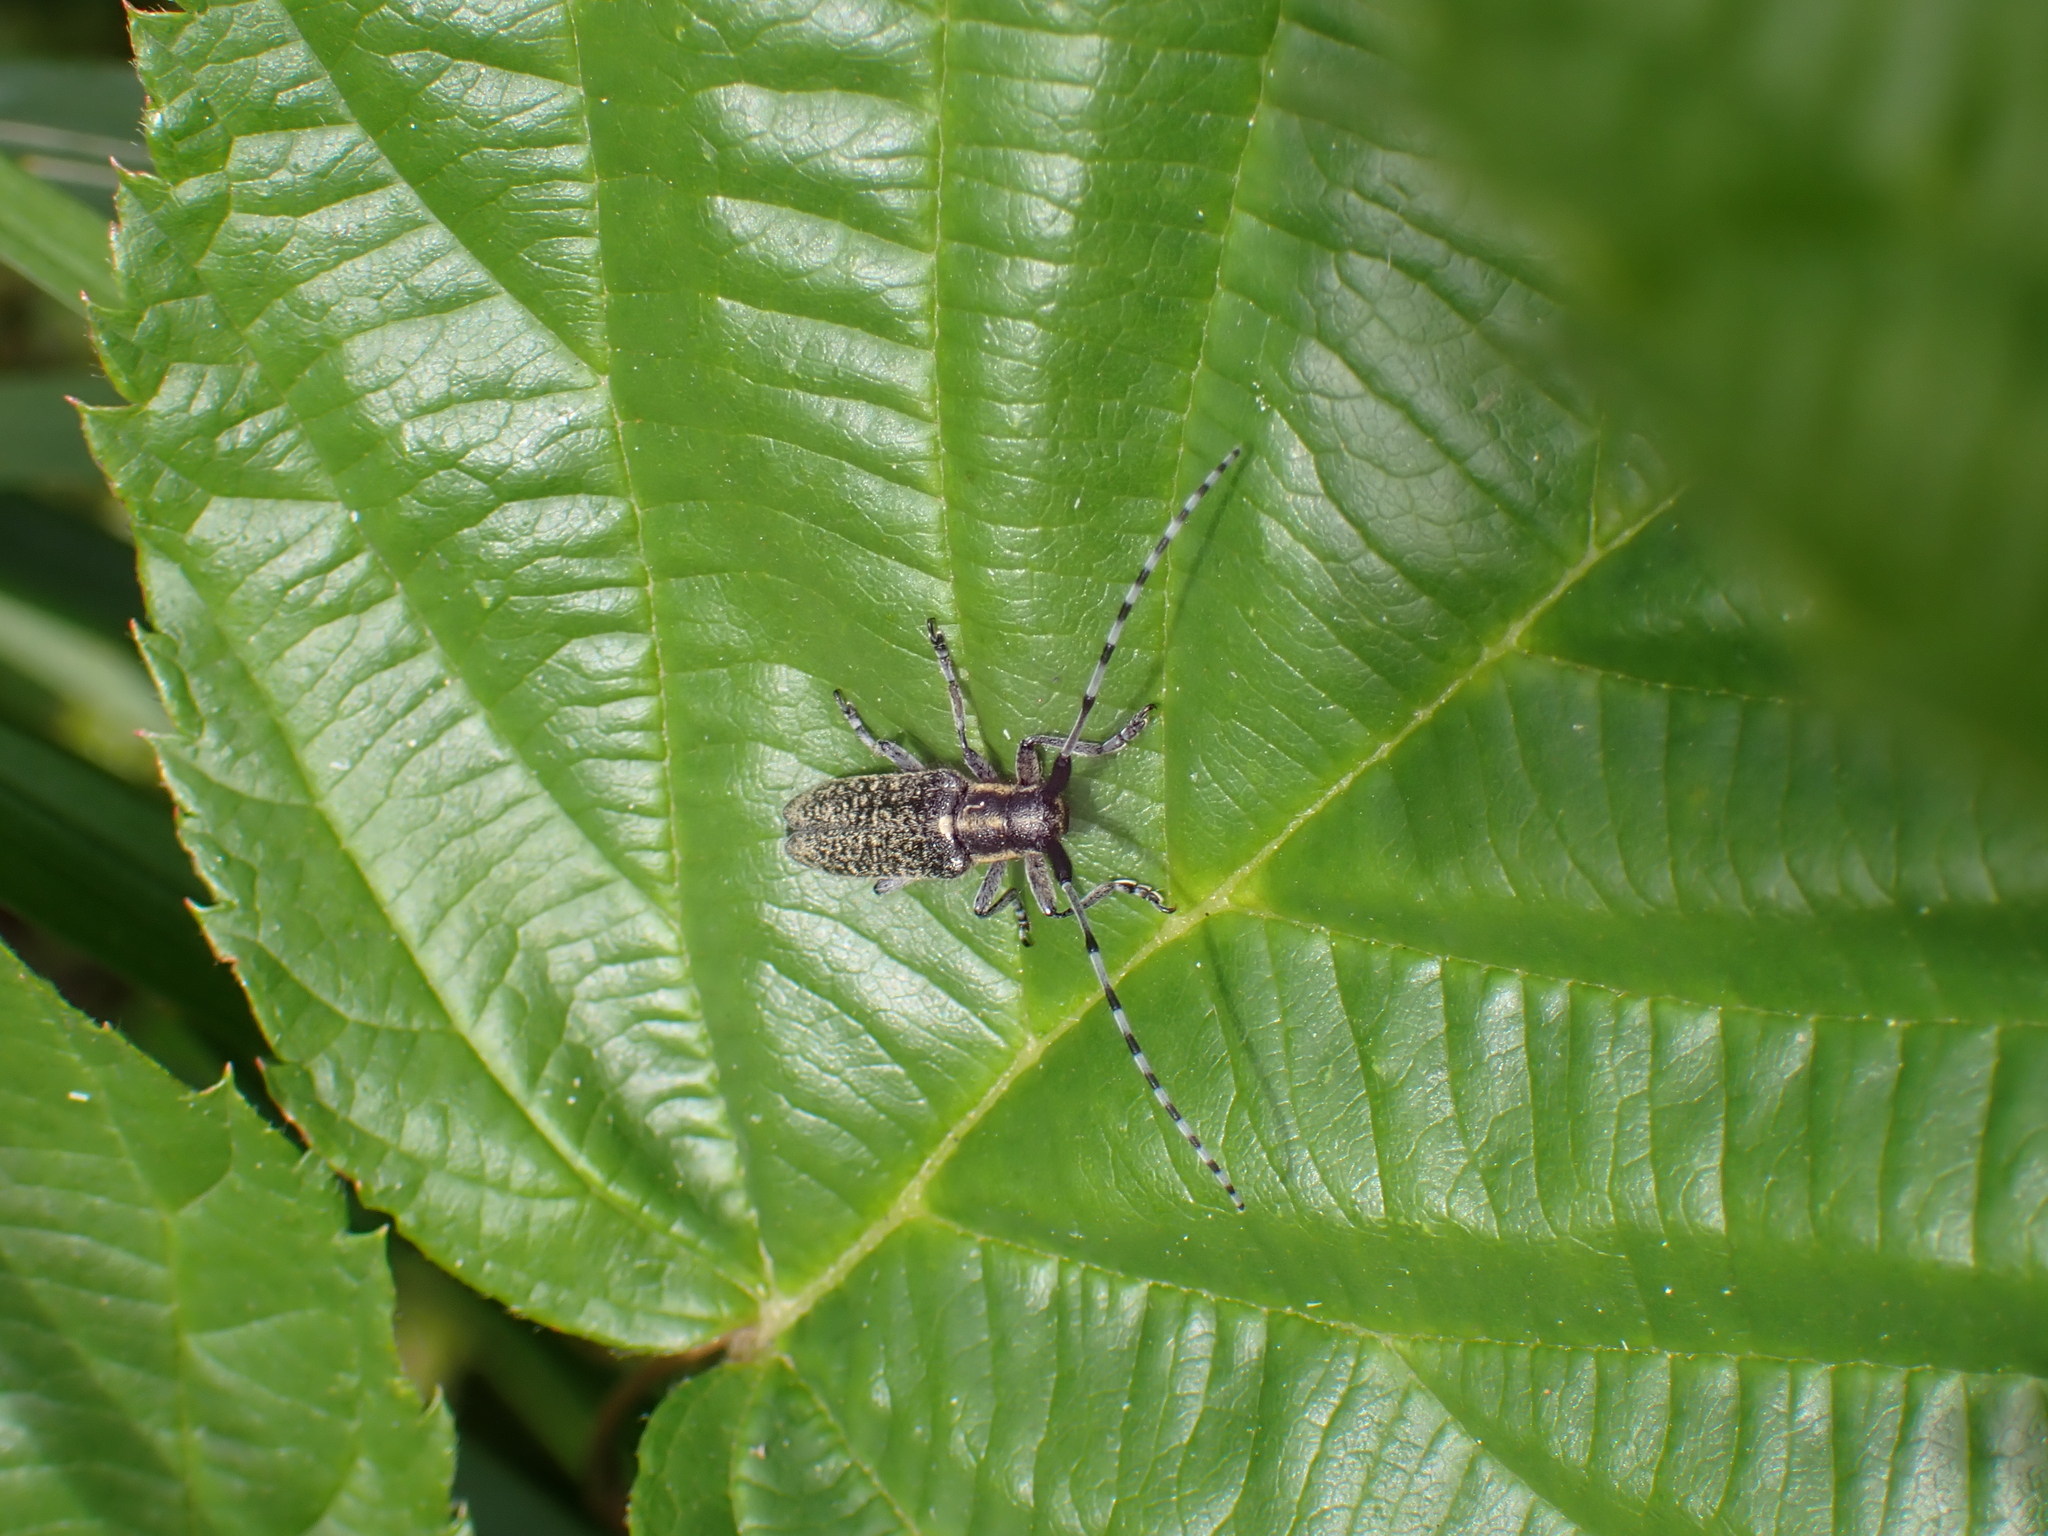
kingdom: Animalia
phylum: Arthropoda
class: Insecta
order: Coleoptera
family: Cerambycidae
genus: Agapanthia
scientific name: Agapanthia villosoviridescens
